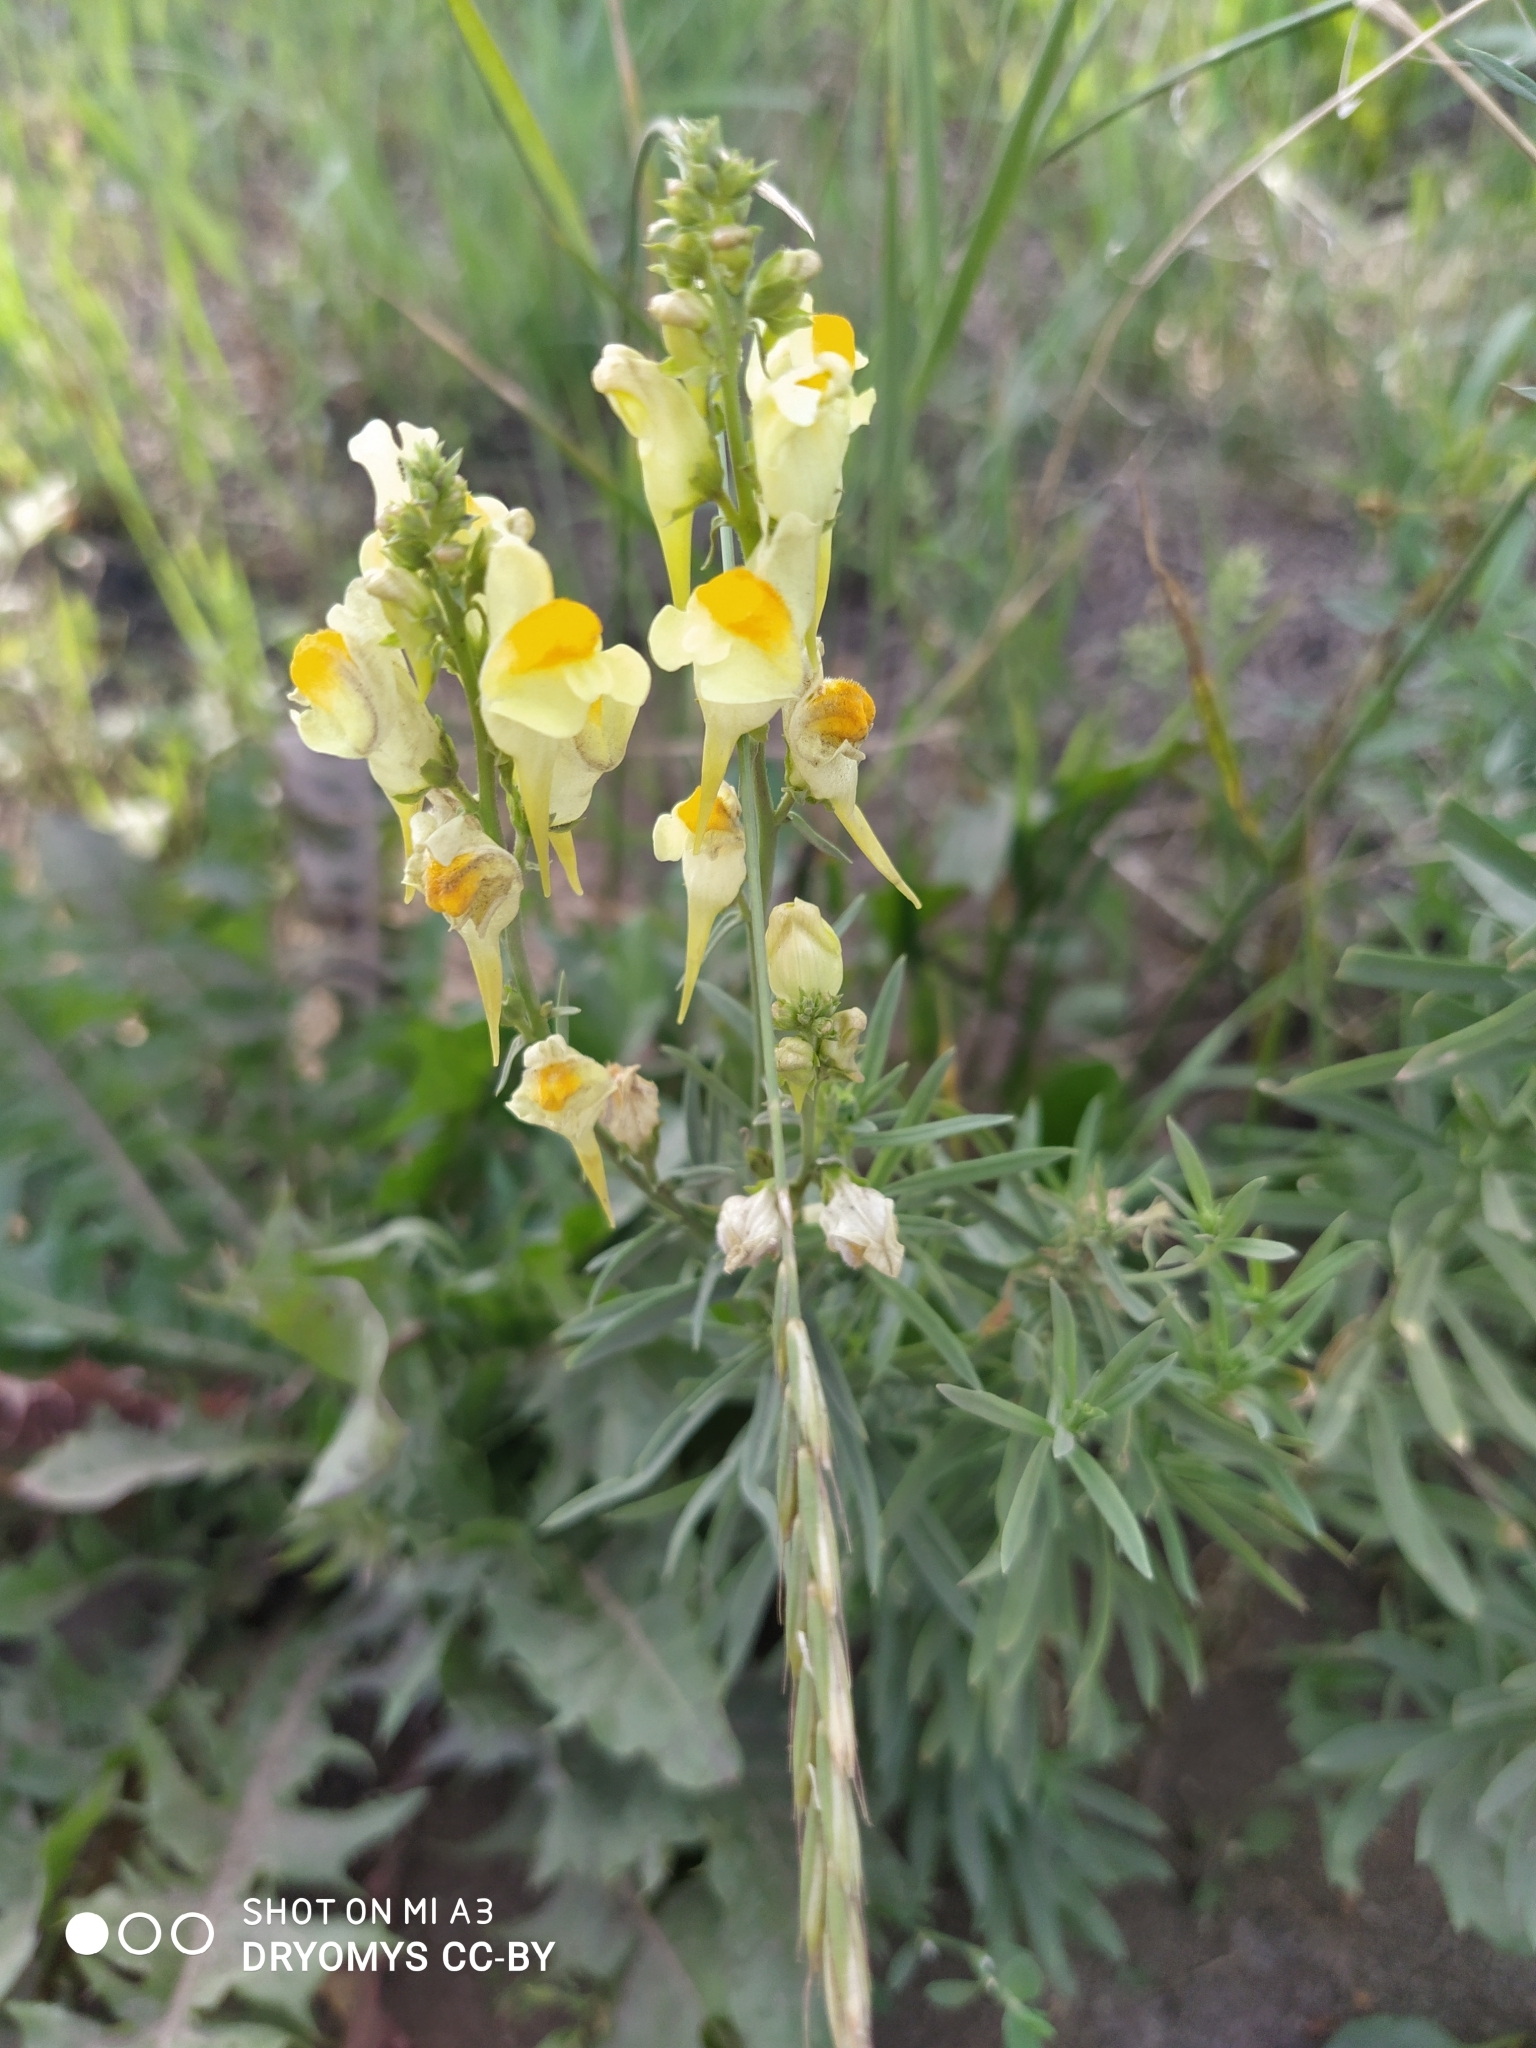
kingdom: Plantae
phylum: Tracheophyta
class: Magnoliopsida
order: Lamiales
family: Plantaginaceae
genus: Linaria
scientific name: Linaria vulgaris
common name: Butter and eggs
